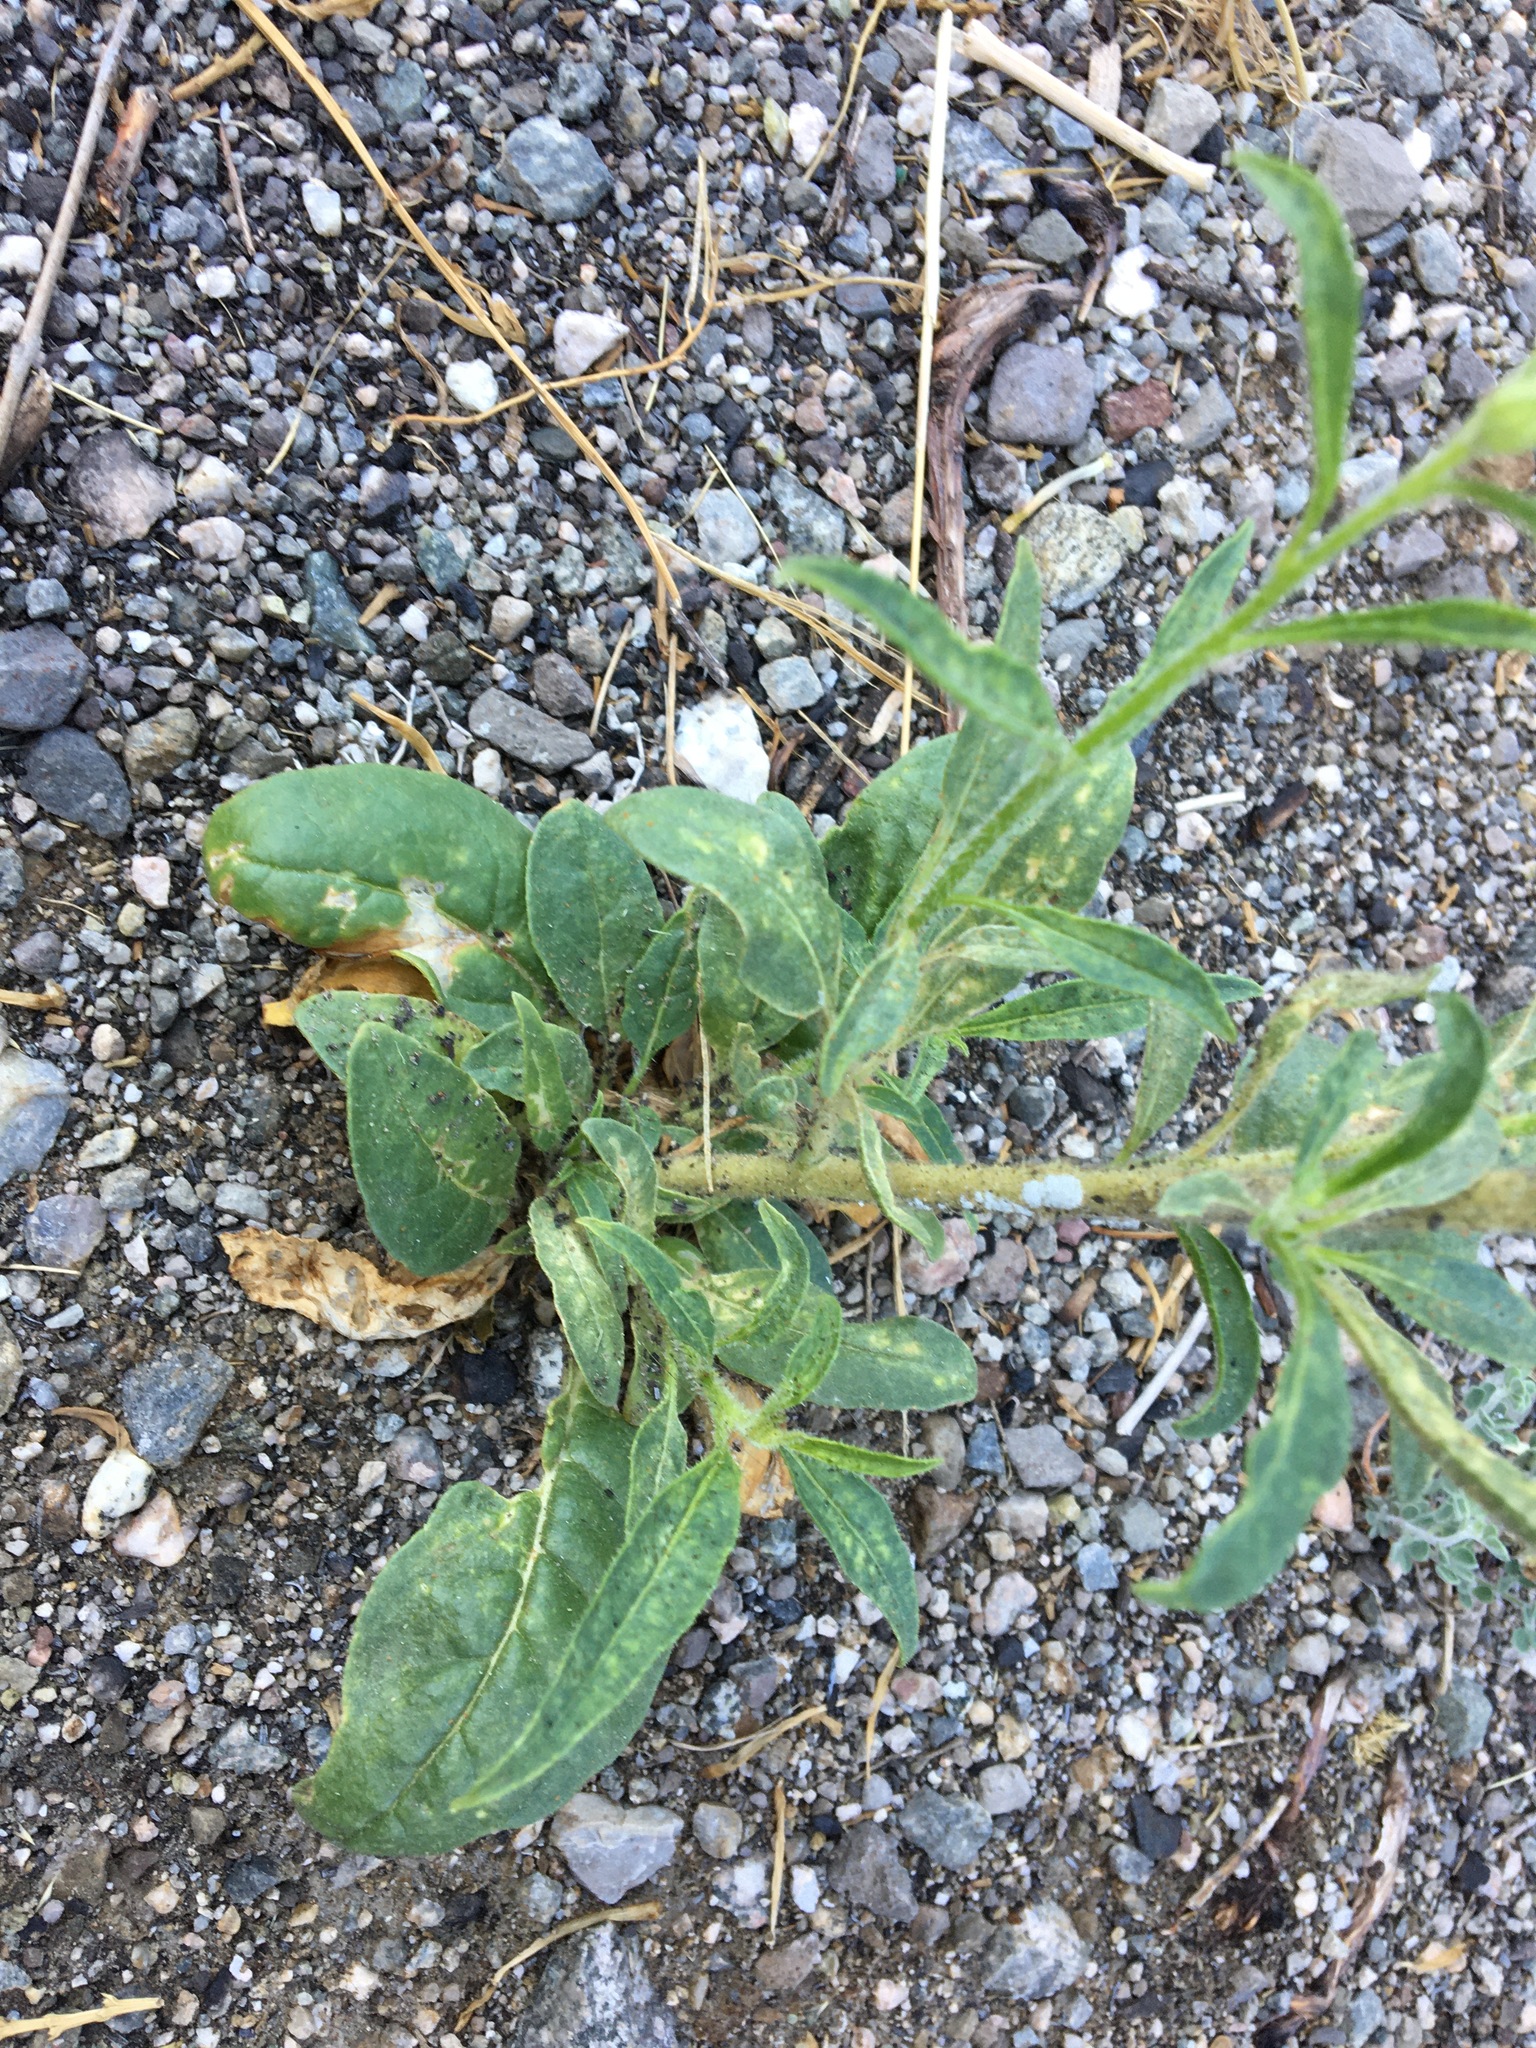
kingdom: Plantae
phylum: Tracheophyta
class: Magnoliopsida
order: Solanales
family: Solanaceae
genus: Nicotiana
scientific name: Nicotiana attenuata
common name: Coyote tobacco
